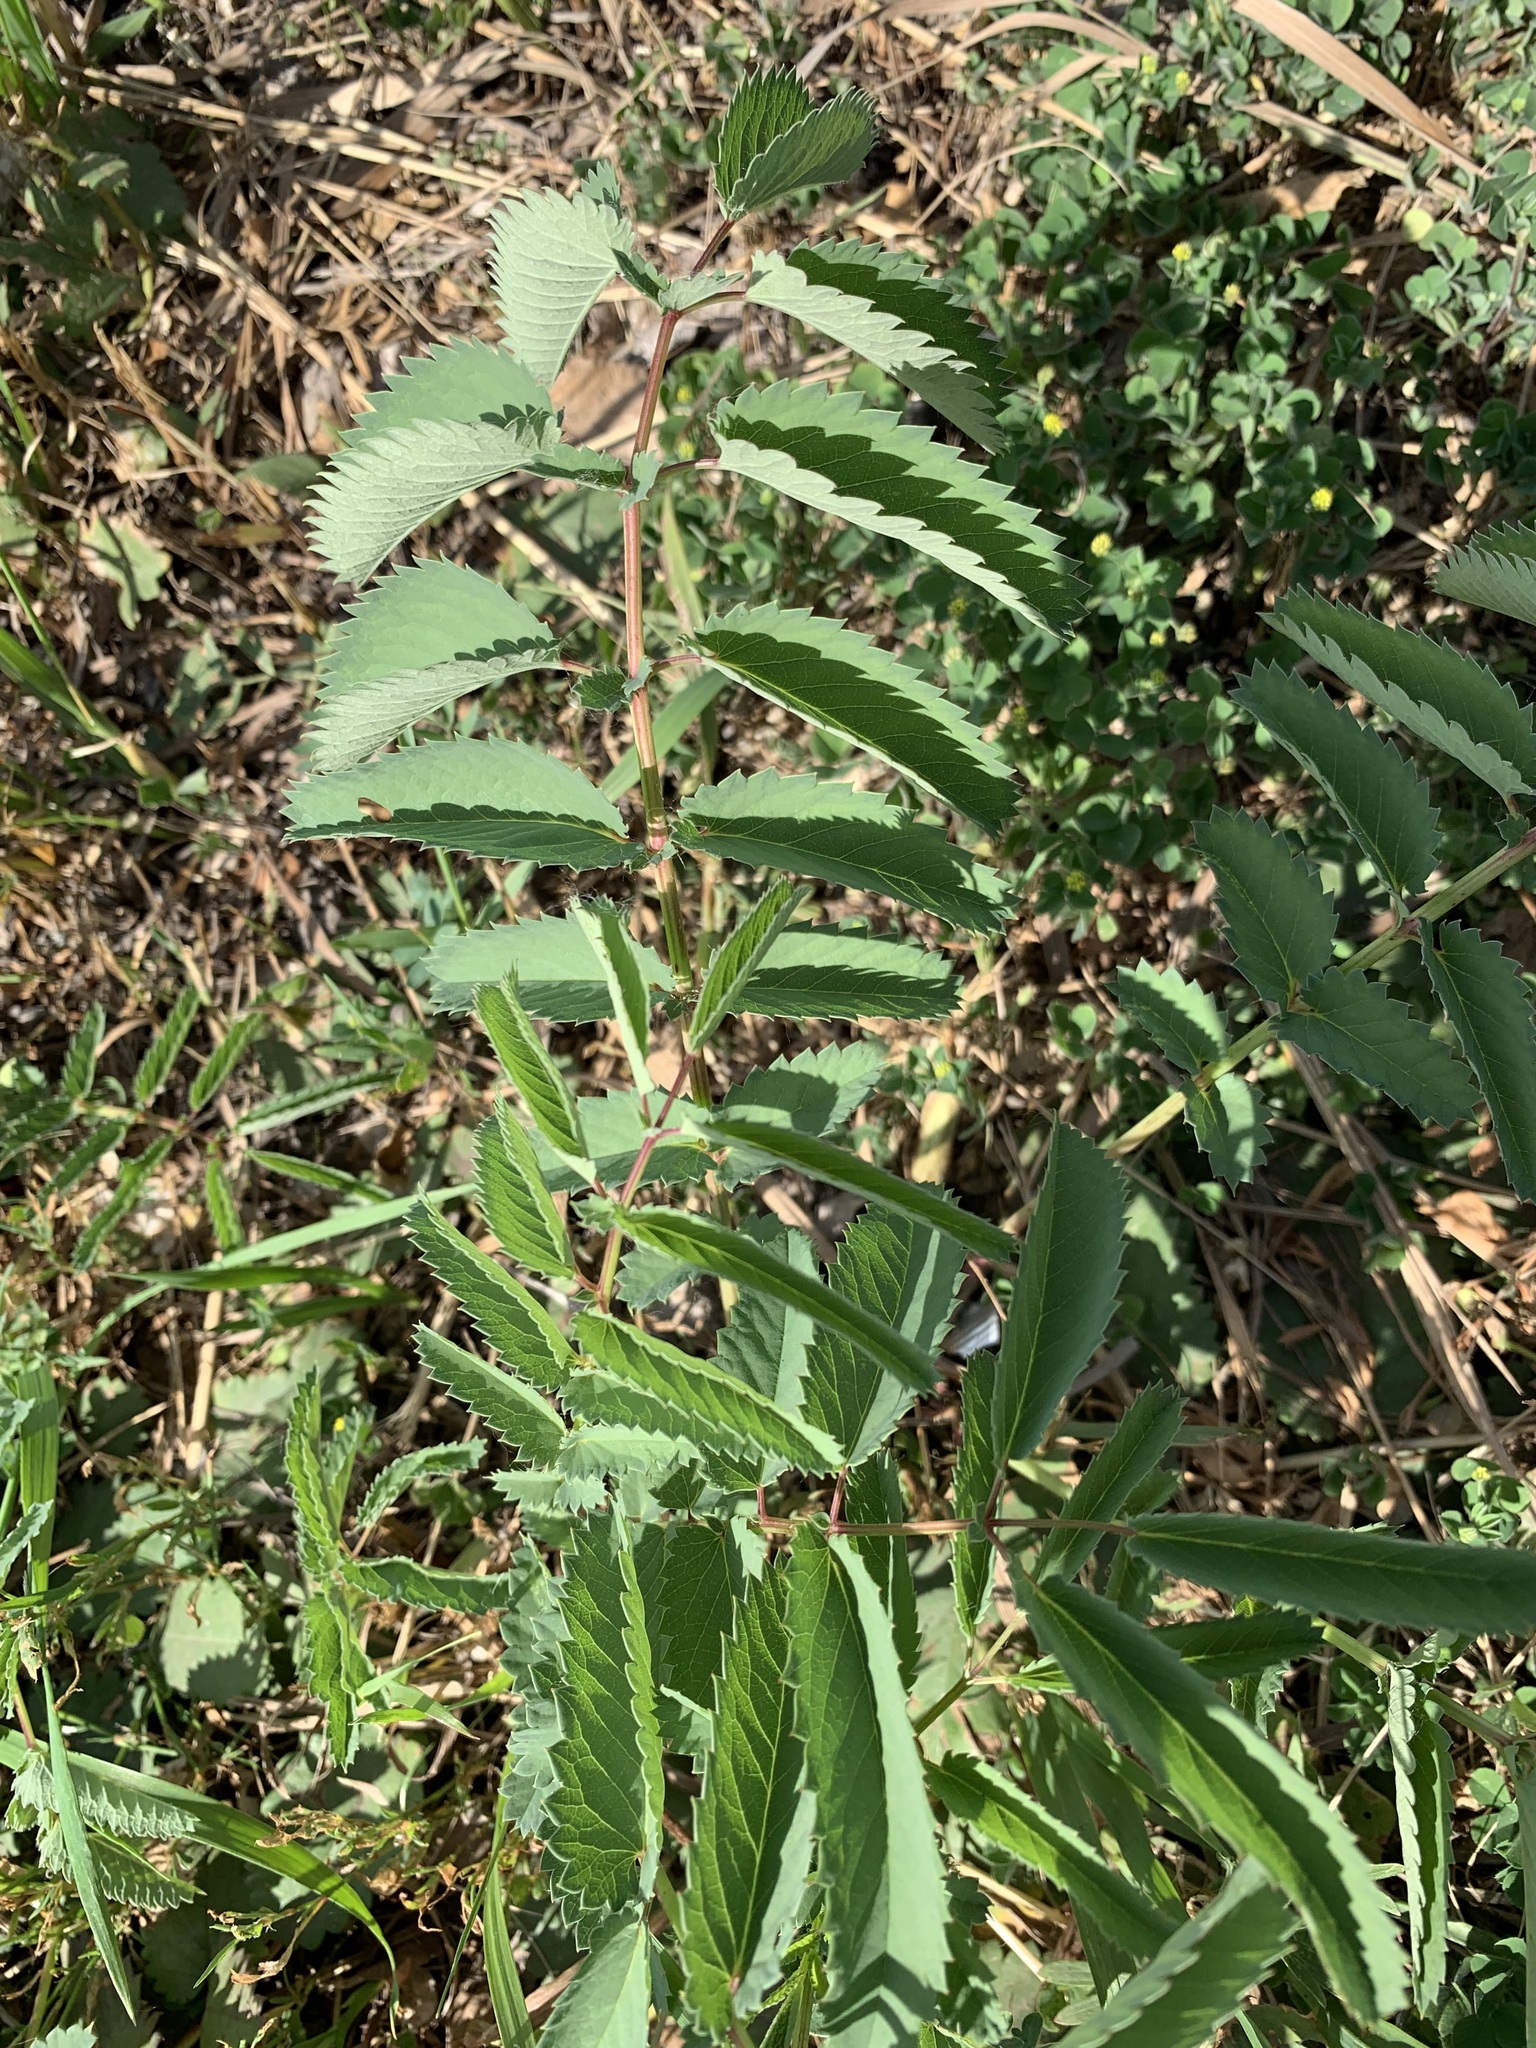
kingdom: Plantae
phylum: Tracheophyta
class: Magnoliopsida
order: Rosales
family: Rosaceae
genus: Sanguisorba
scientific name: Sanguisorba officinalis
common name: Great burnet
